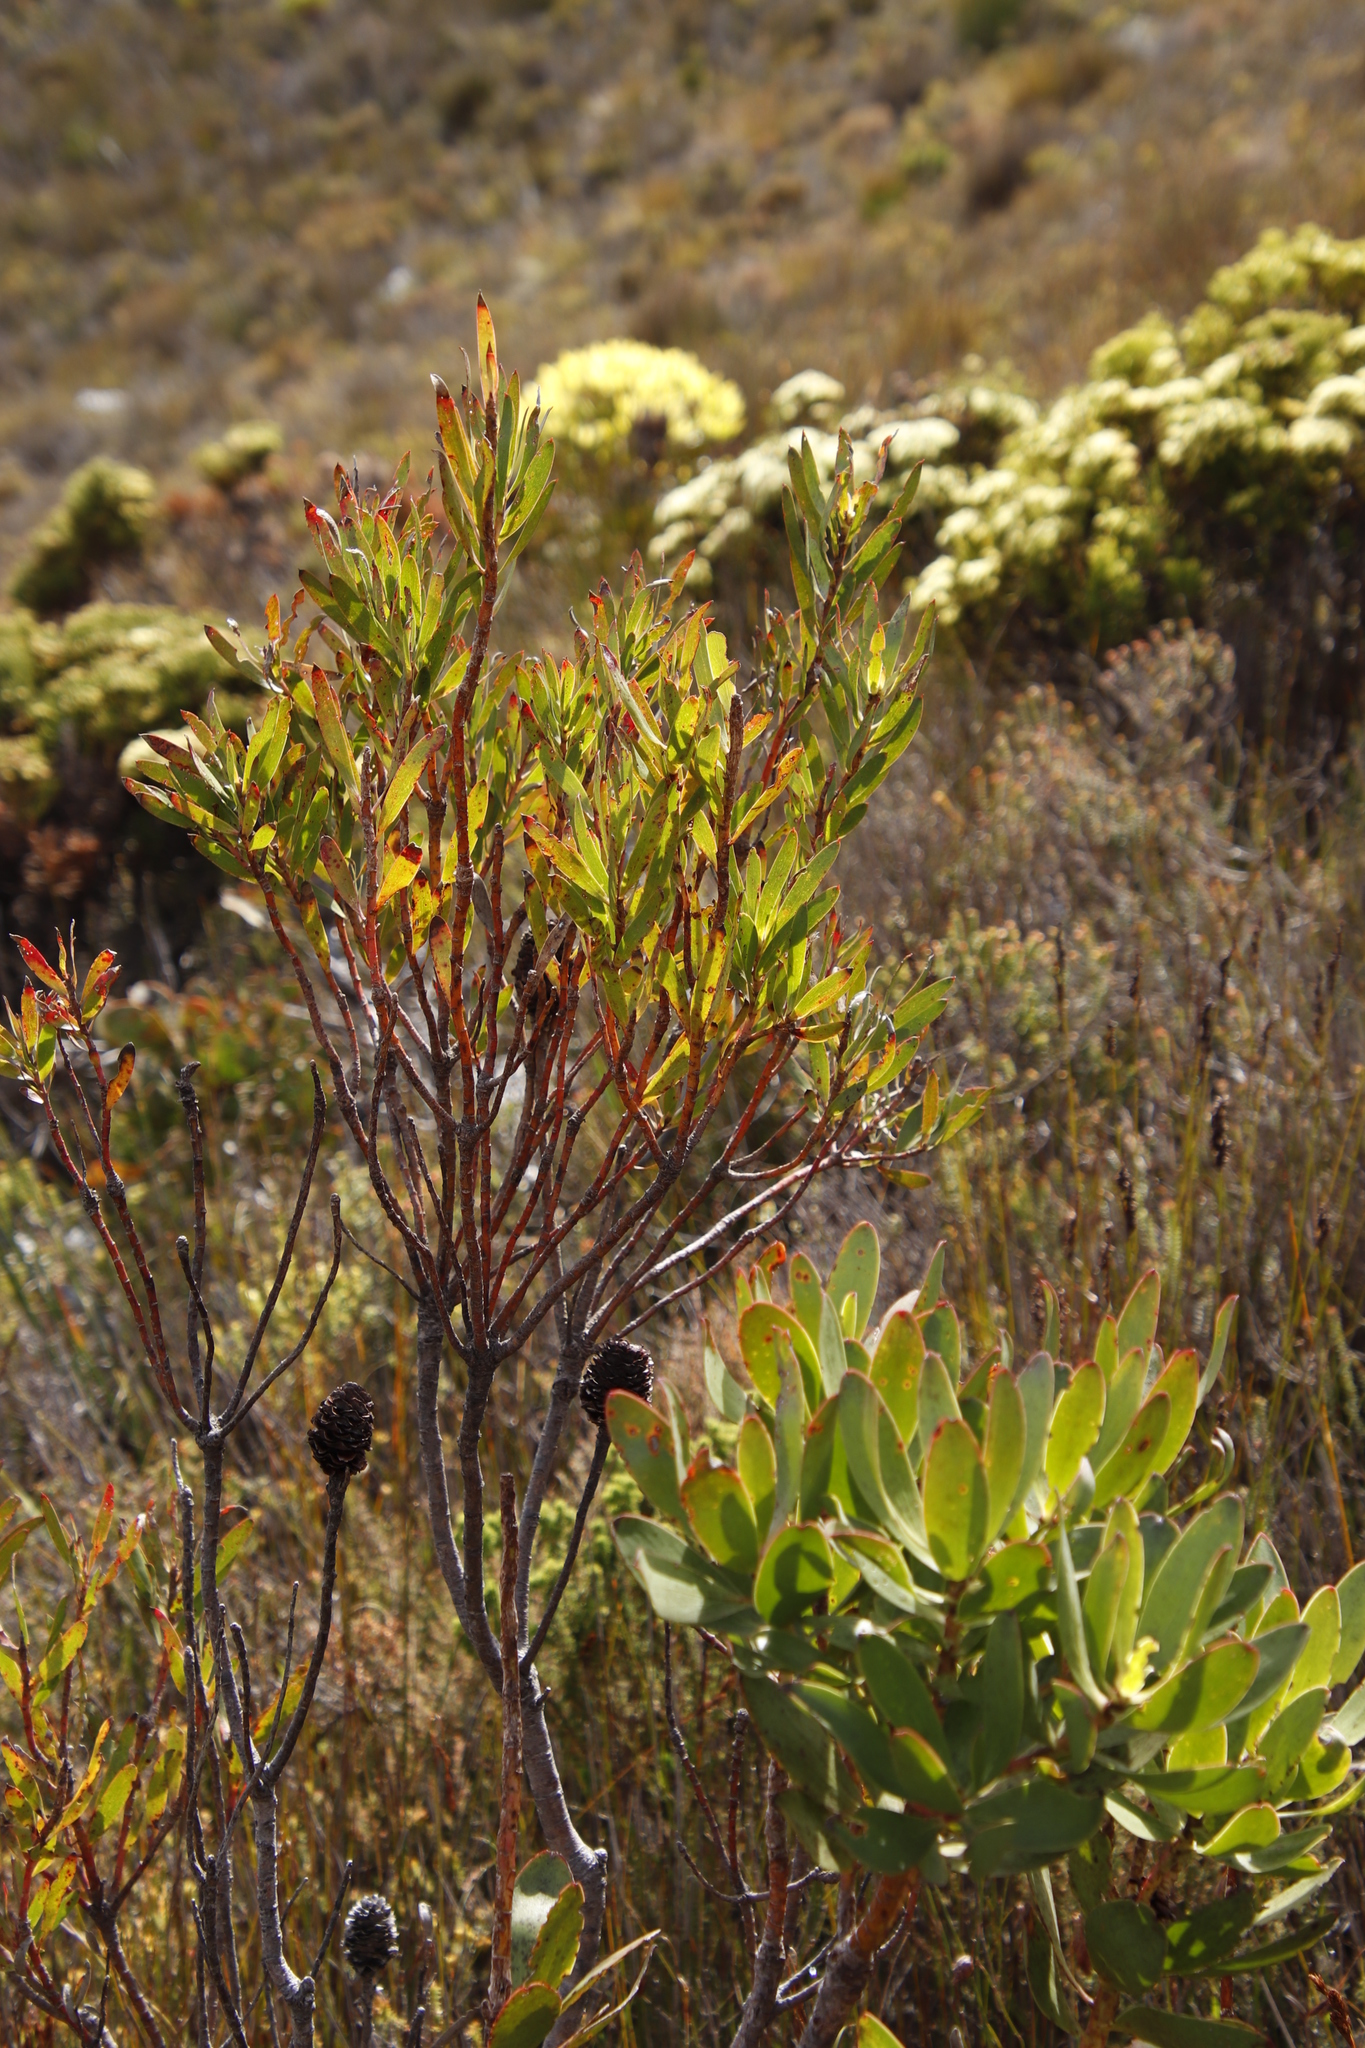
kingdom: Plantae
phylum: Tracheophyta
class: Magnoliopsida
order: Proteales
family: Proteaceae
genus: Leucadendron
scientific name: Leucadendron
